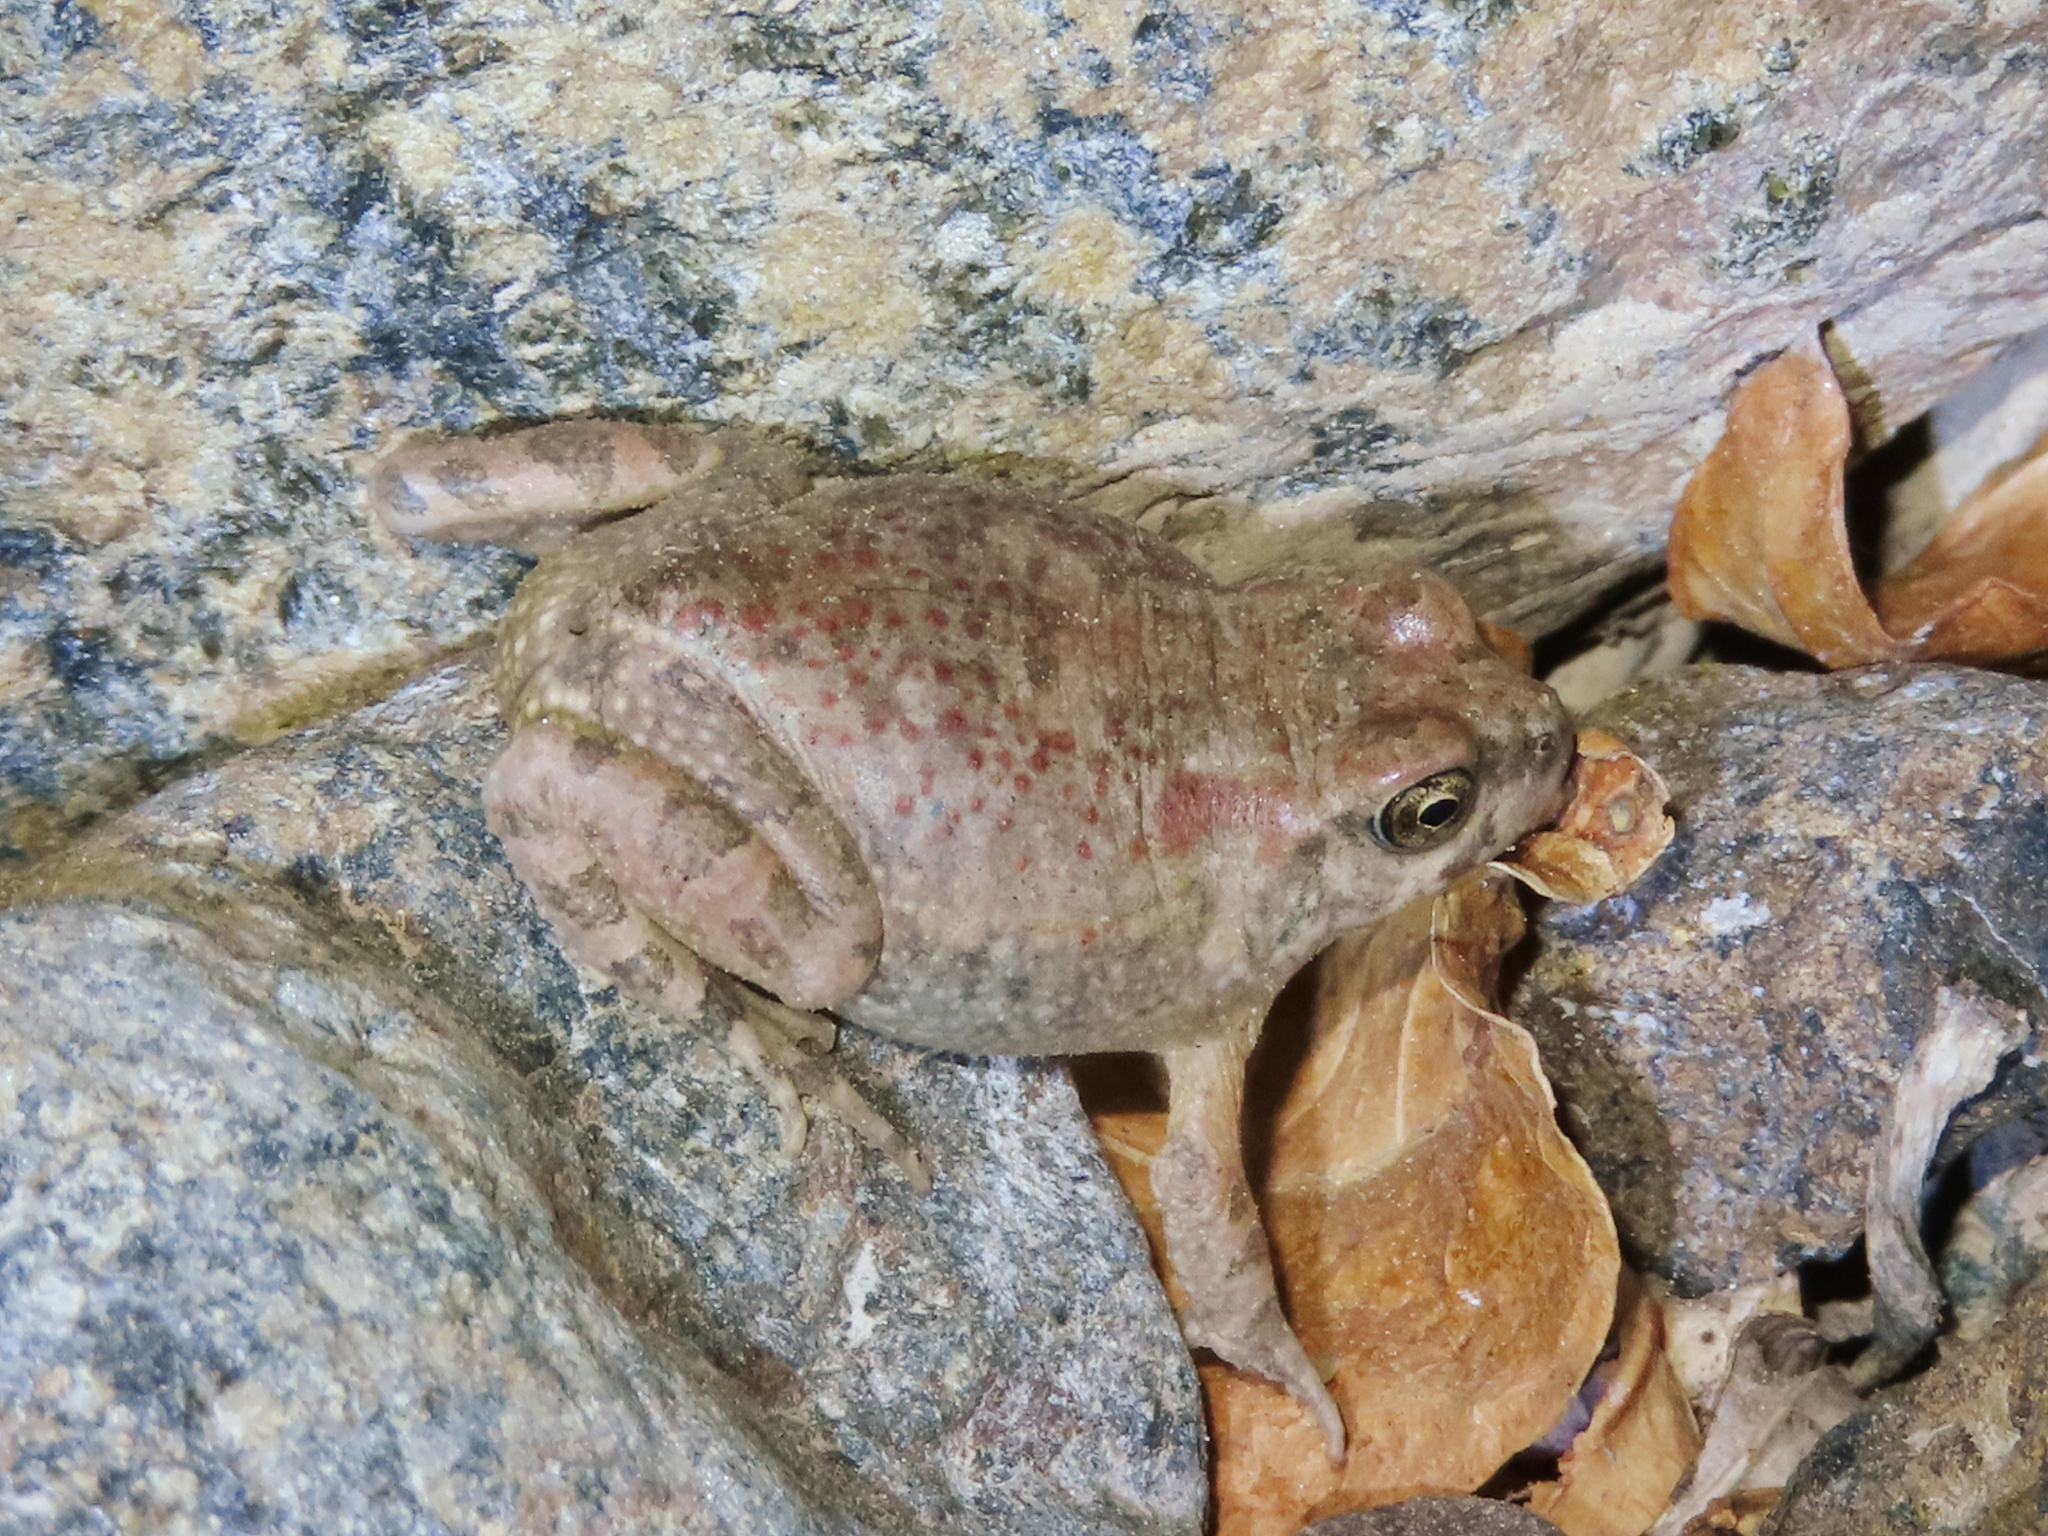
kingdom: Animalia
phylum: Chordata
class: Amphibia
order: Anura
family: Bufonidae
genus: Sclerophrys
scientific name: Sclerophrys arabica
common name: Arabian toad
